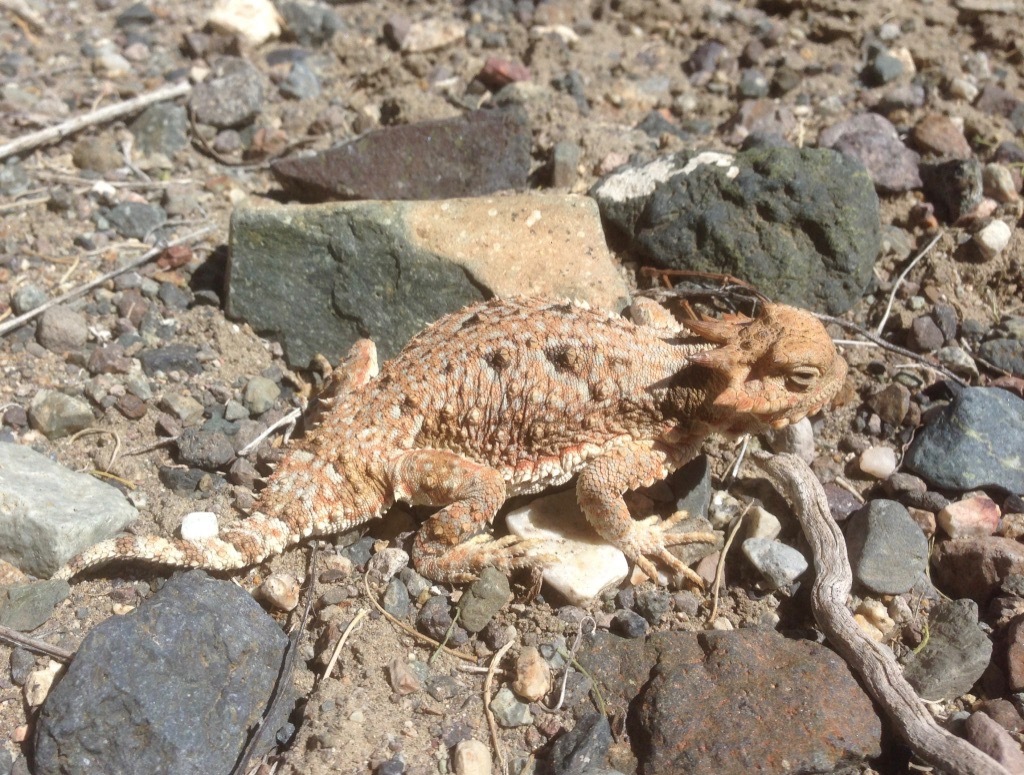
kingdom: Animalia
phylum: Chordata
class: Squamata
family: Phrynosomatidae
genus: Phrynosoma
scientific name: Phrynosoma platyrhinos
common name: Desert horned lizard
